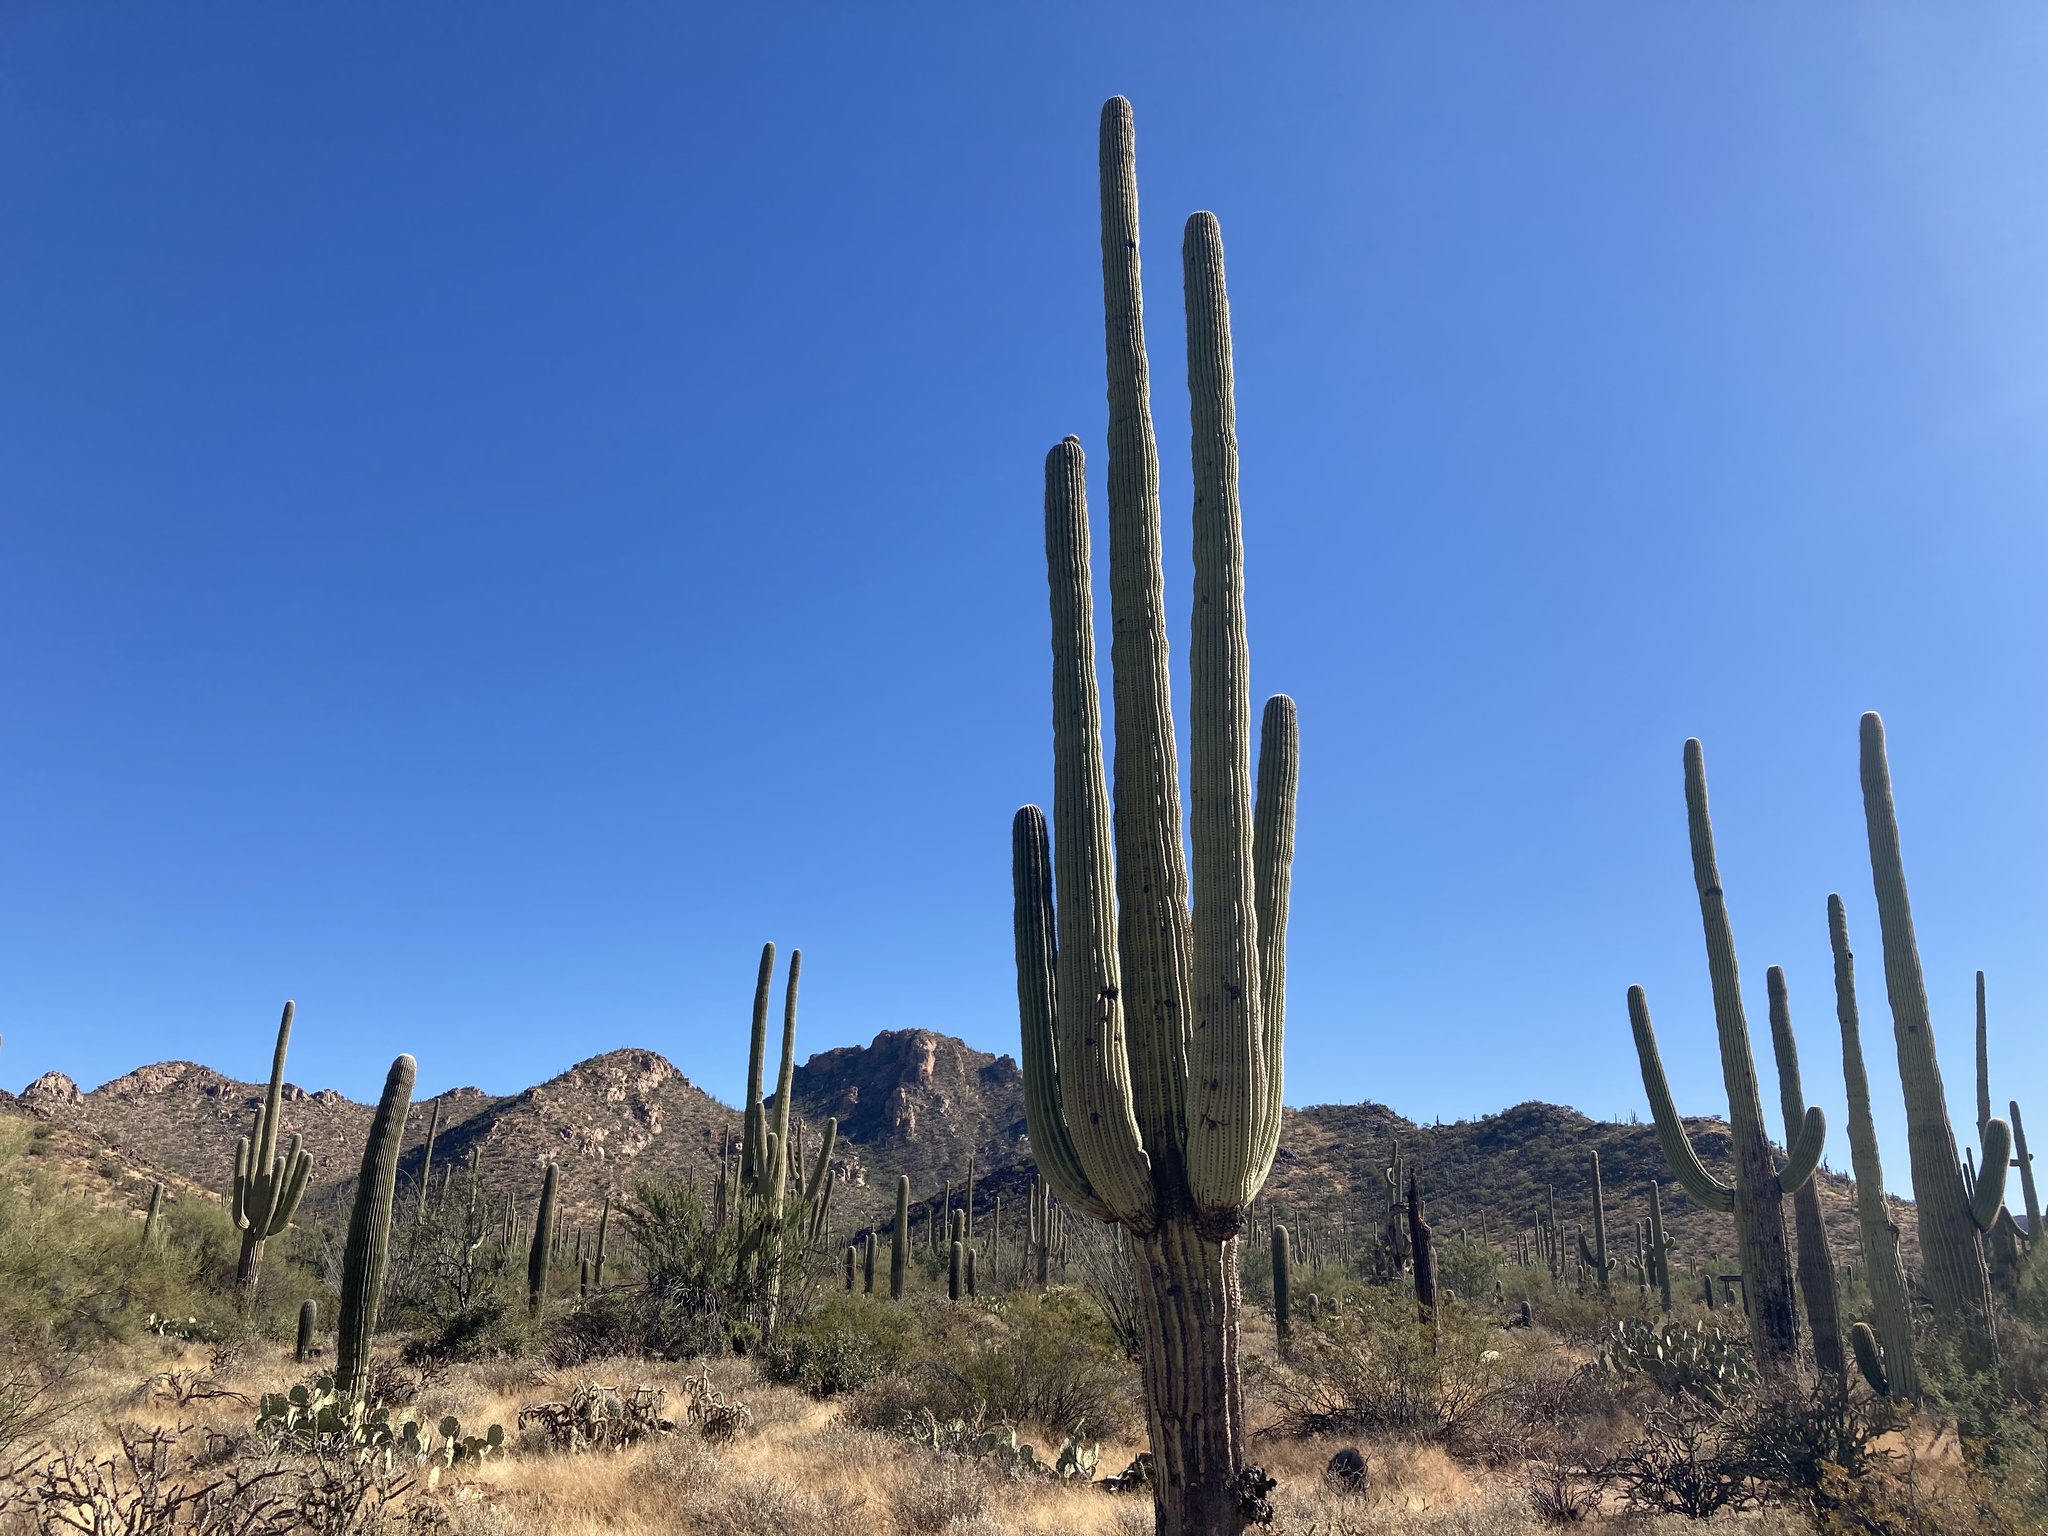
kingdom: Plantae
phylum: Tracheophyta
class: Magnoliopsida
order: Caryophyllales
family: Cactaceae
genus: Carnegiea
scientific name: Carnegiea gigantea
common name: Saguaro
